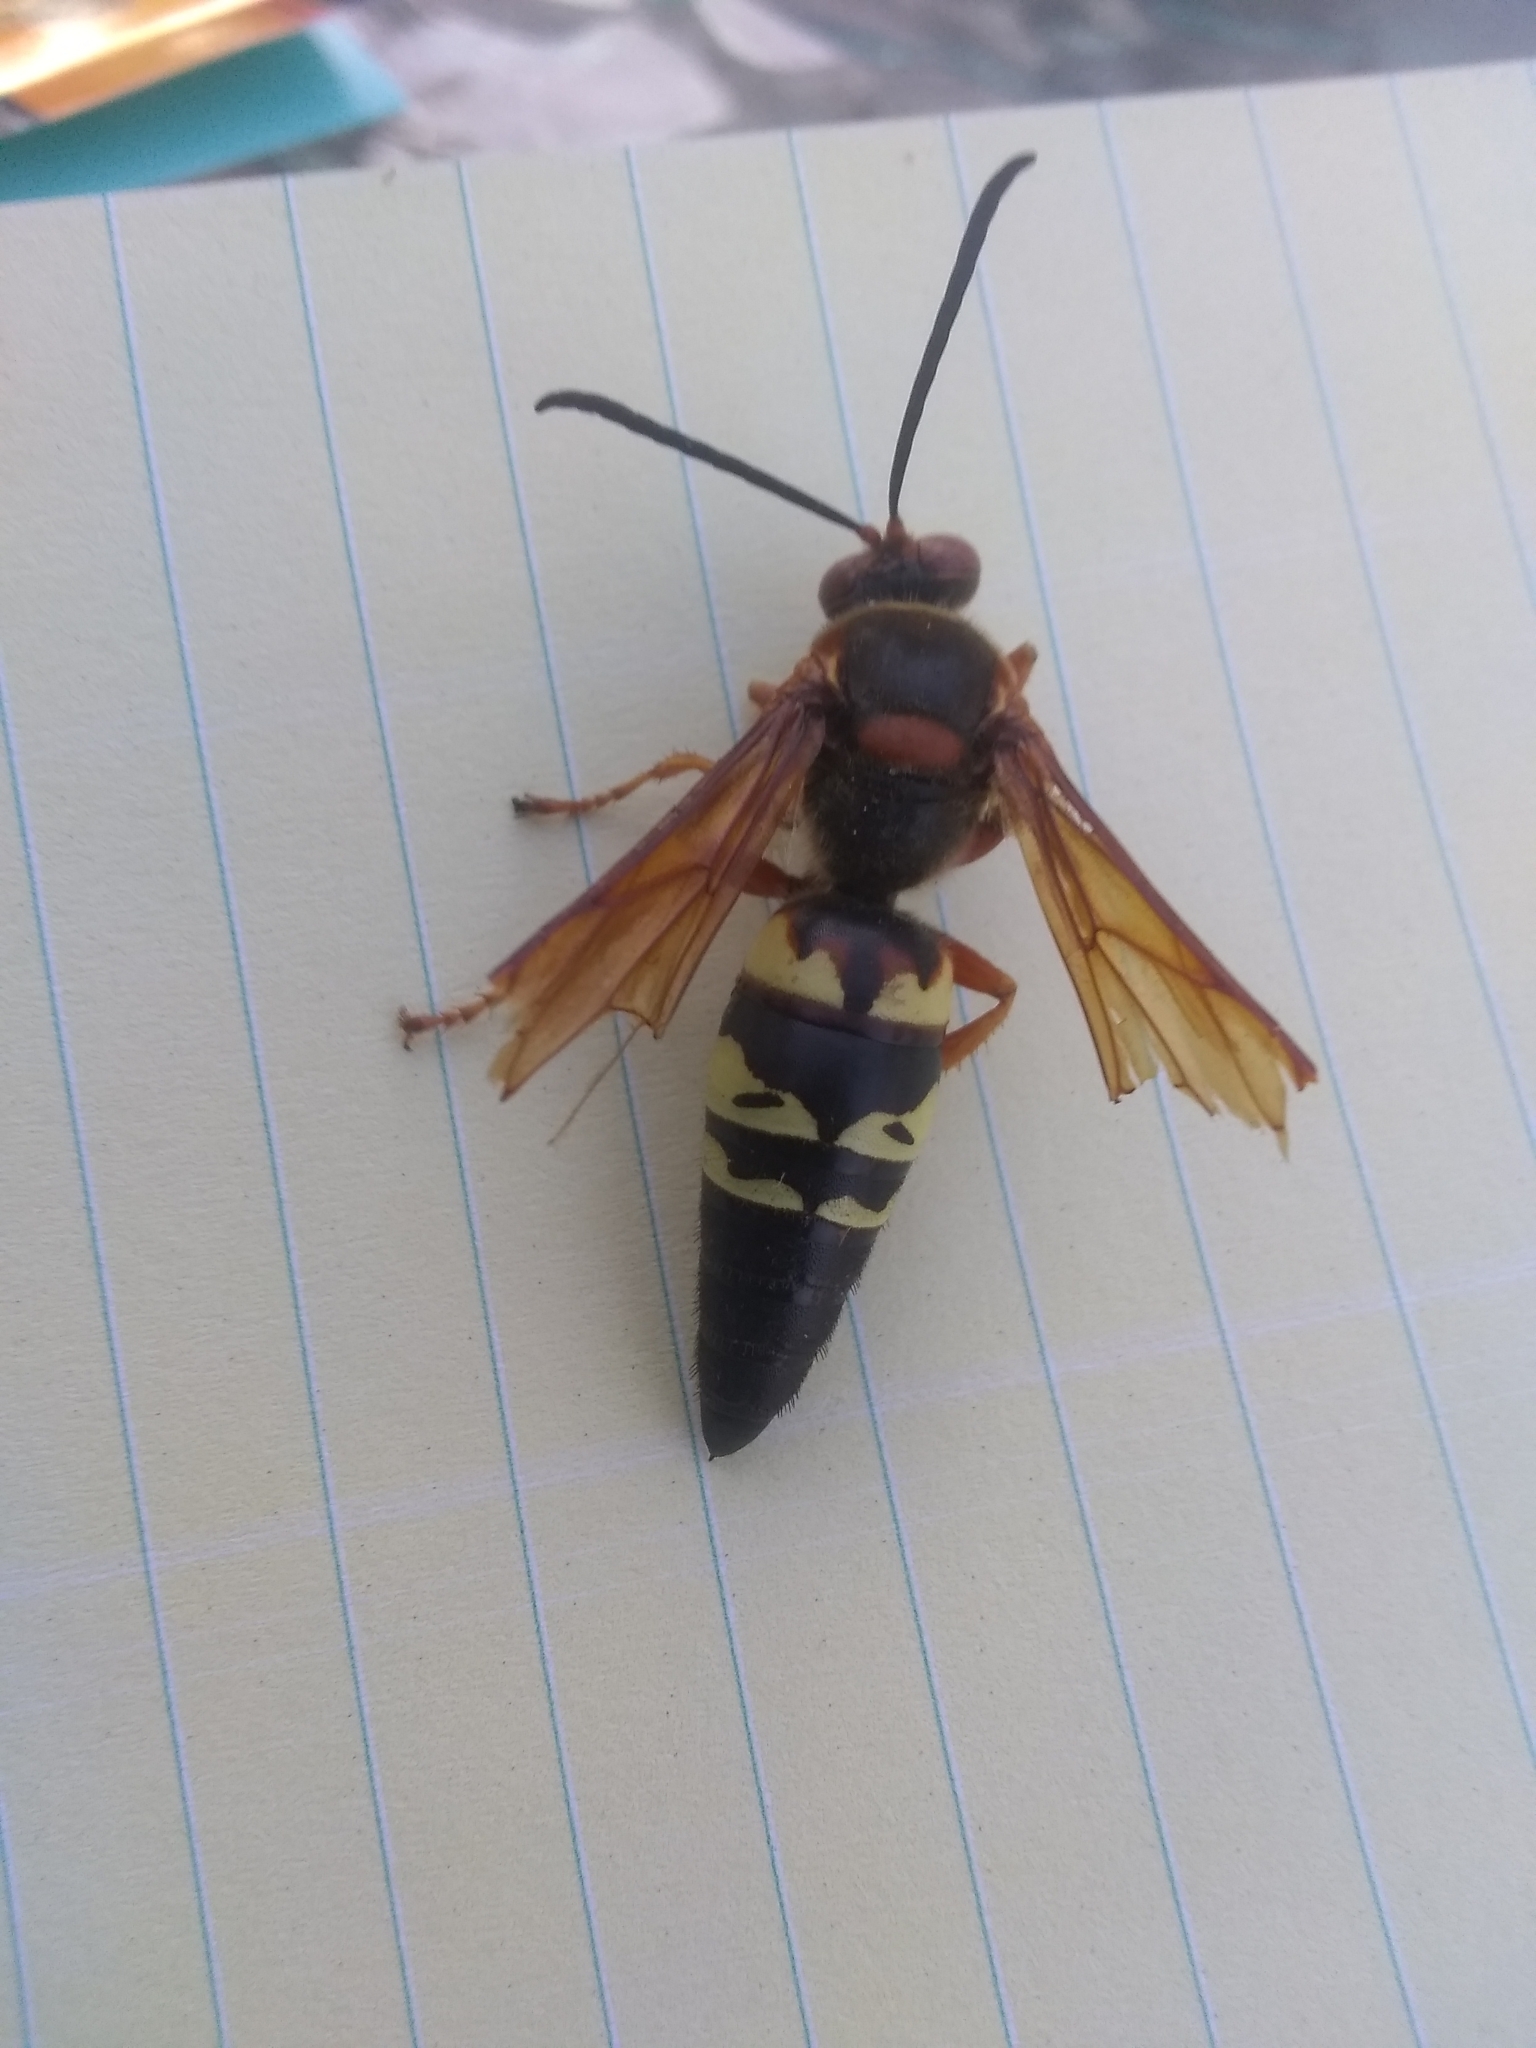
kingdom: Animalia
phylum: Arthropoda
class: Insecta
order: Hymenoptera
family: Crabronidae
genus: Sphecius
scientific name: Sphecius speciosus
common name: Cicada killer
